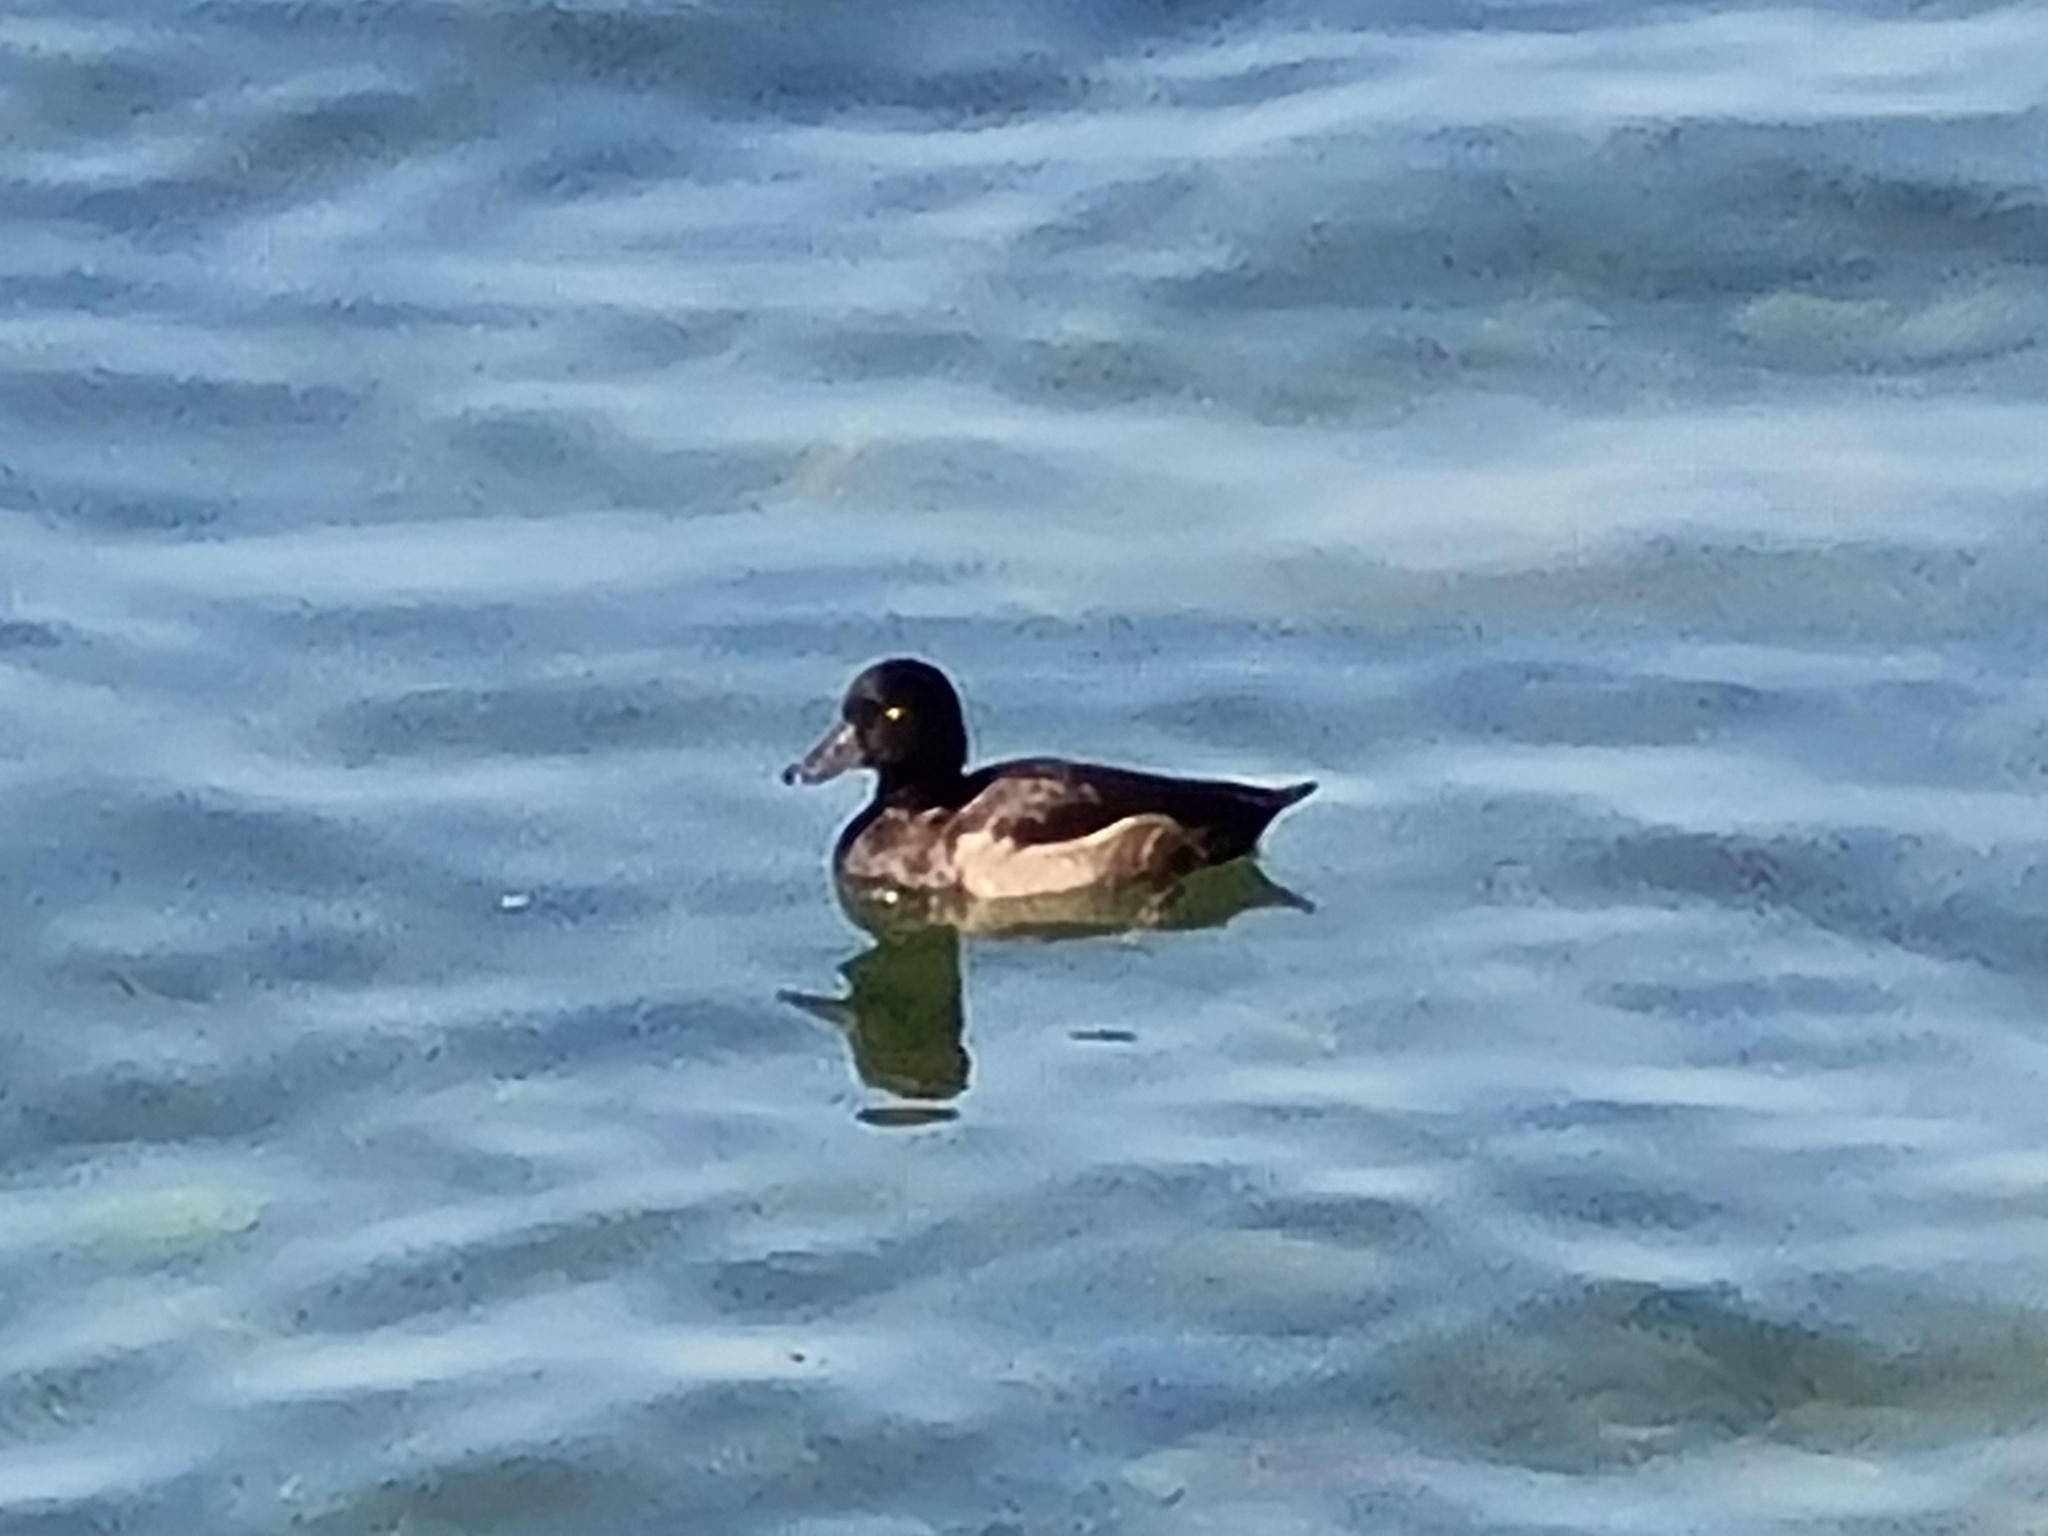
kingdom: Animalia
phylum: Chordata
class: Aves
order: Anseriformes
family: Anatidae
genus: Aythya
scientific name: Aythya fuligula
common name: Tufted duck
